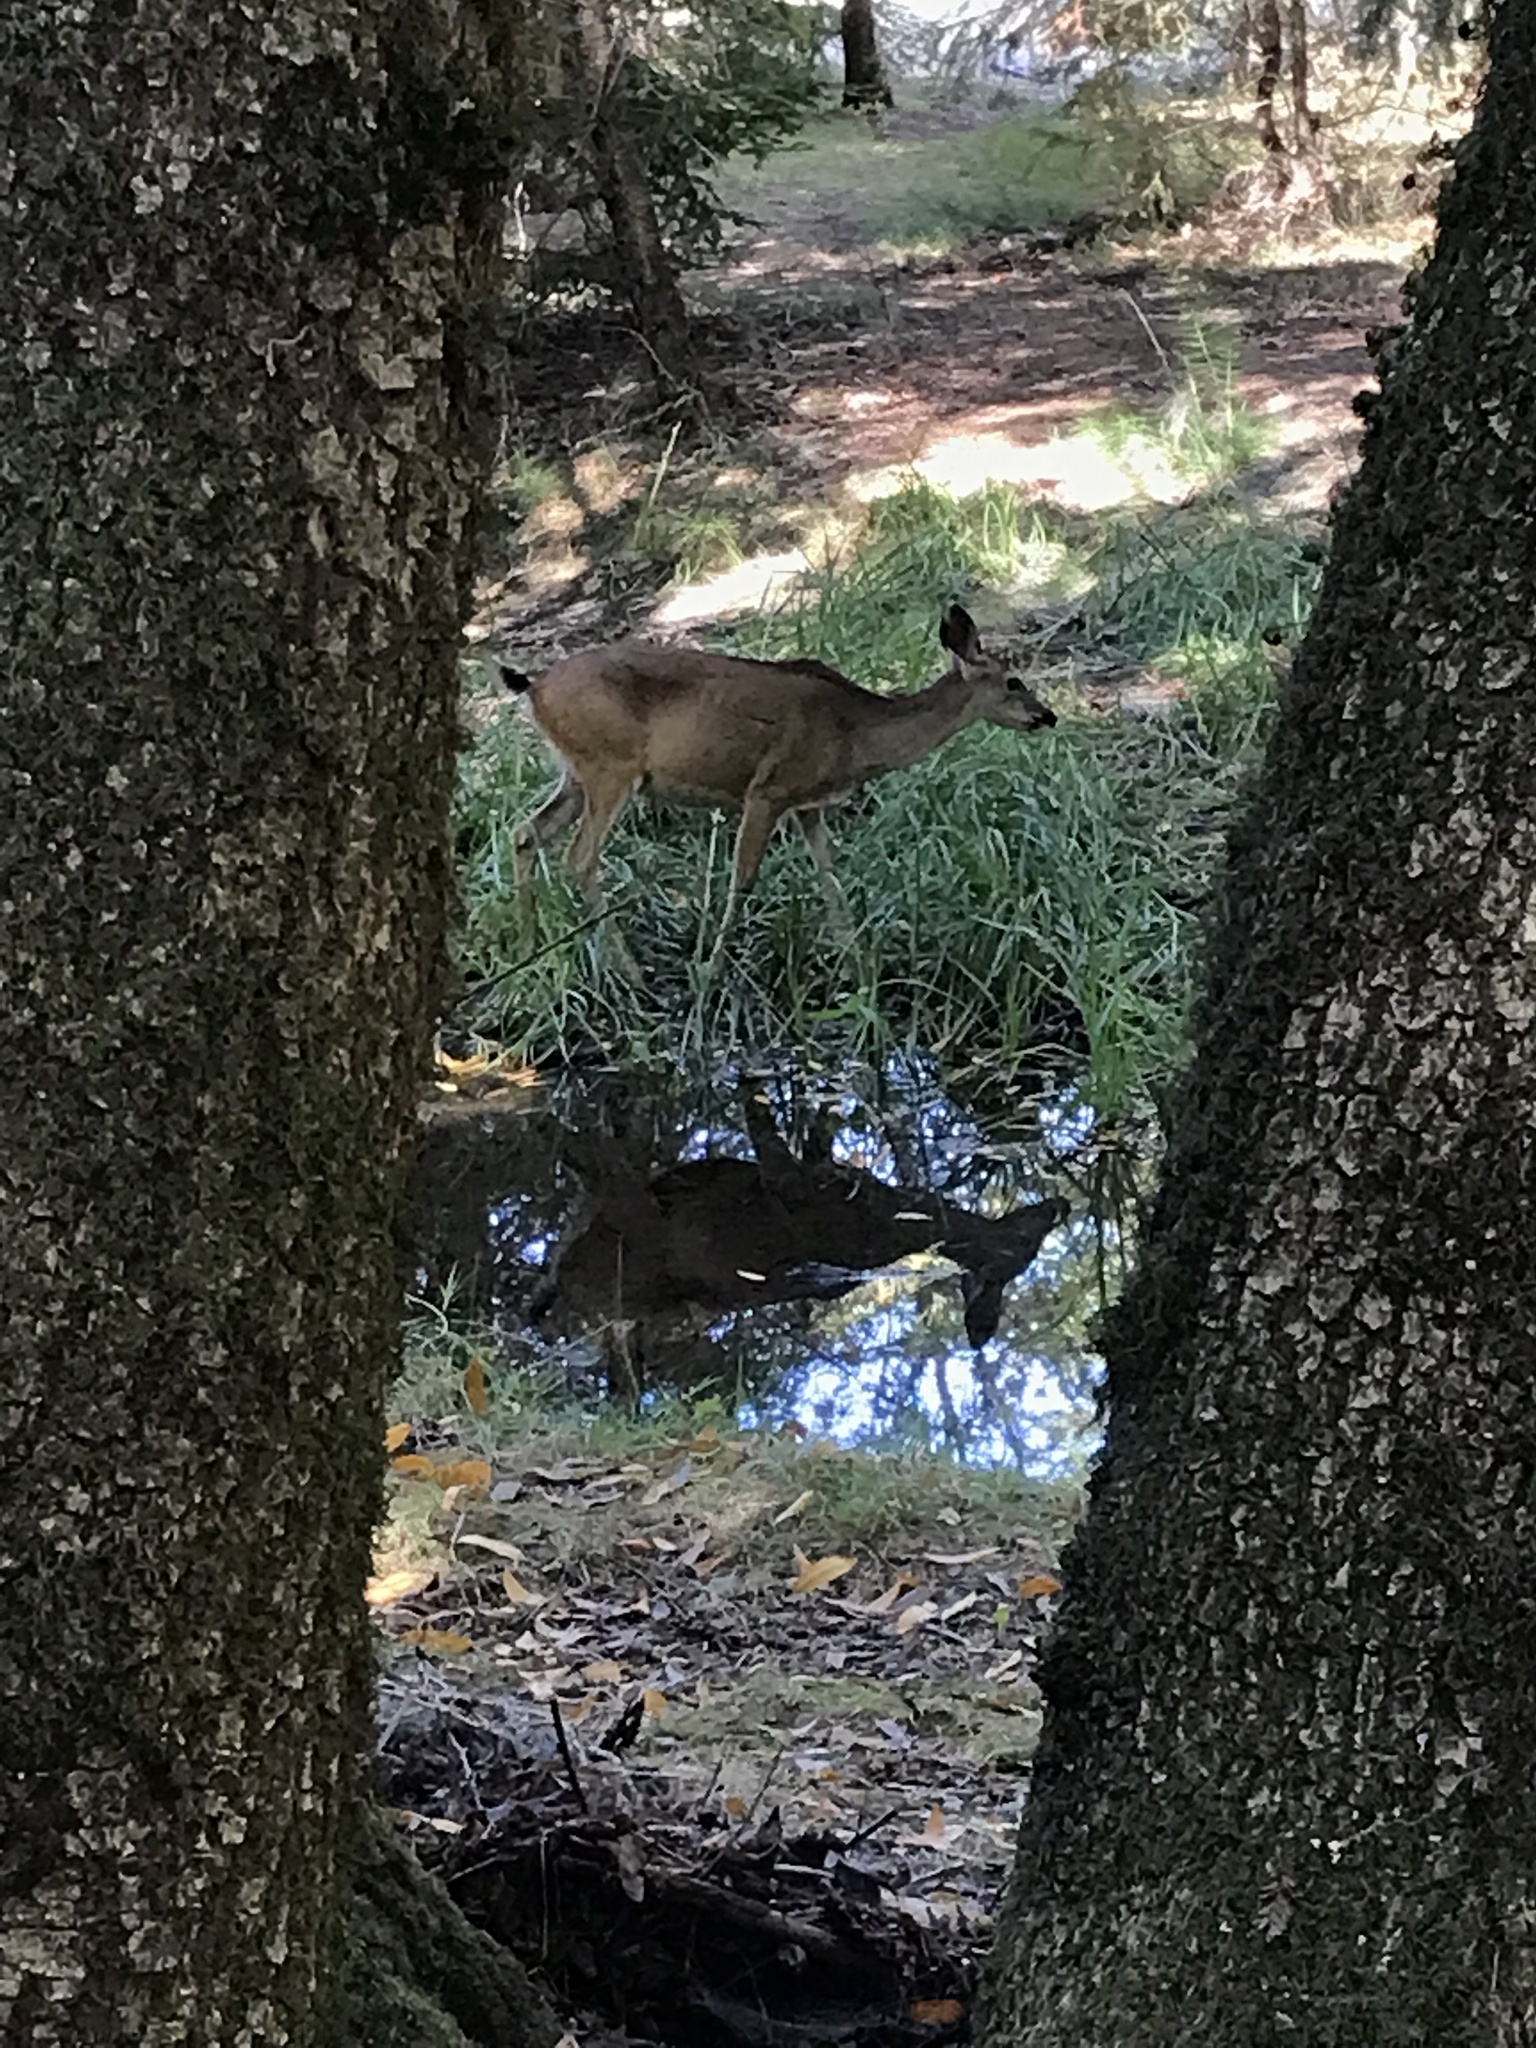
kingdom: Animalia
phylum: Chordata
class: Mammalia
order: Artiodactyla
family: Cervidae
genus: Odocoileus
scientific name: Odocoileus hemionus
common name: Mule deer
